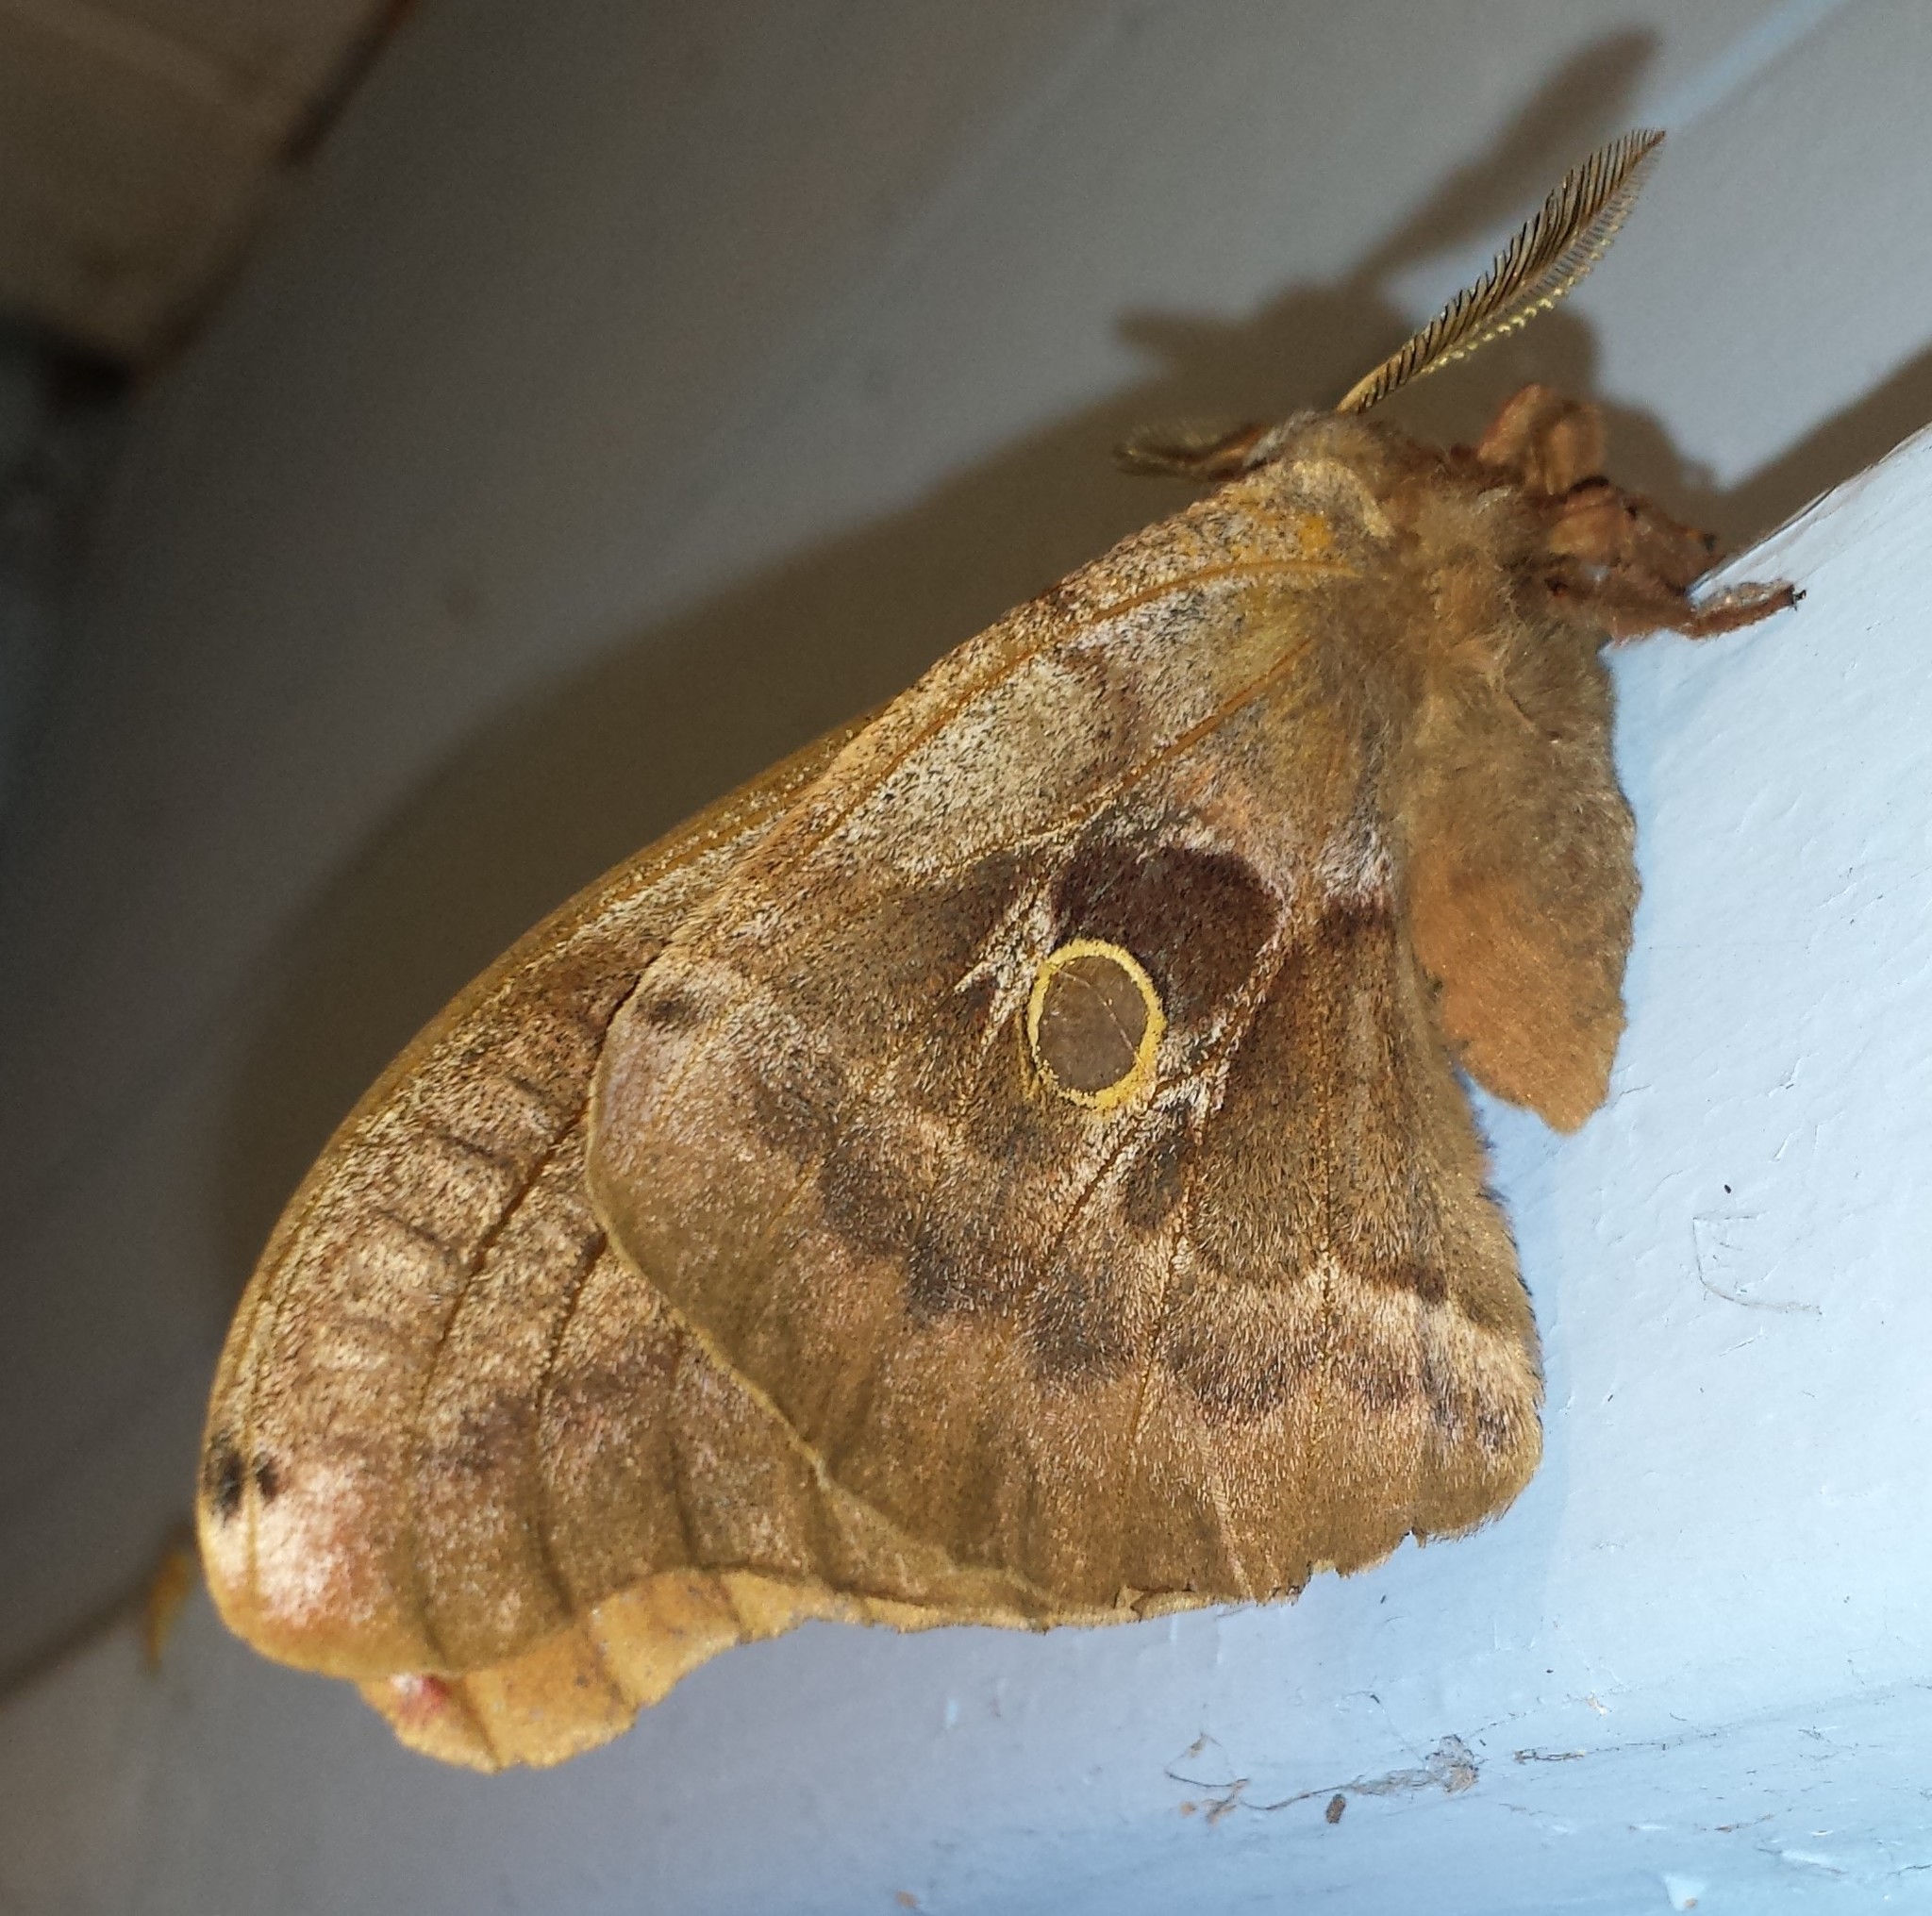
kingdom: Animalia
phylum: Arthropoda
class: Insecta
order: Lepidoptera
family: Saturniidae
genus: Antheraea
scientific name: Antheraea polyphemus
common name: Polyphemus moth
